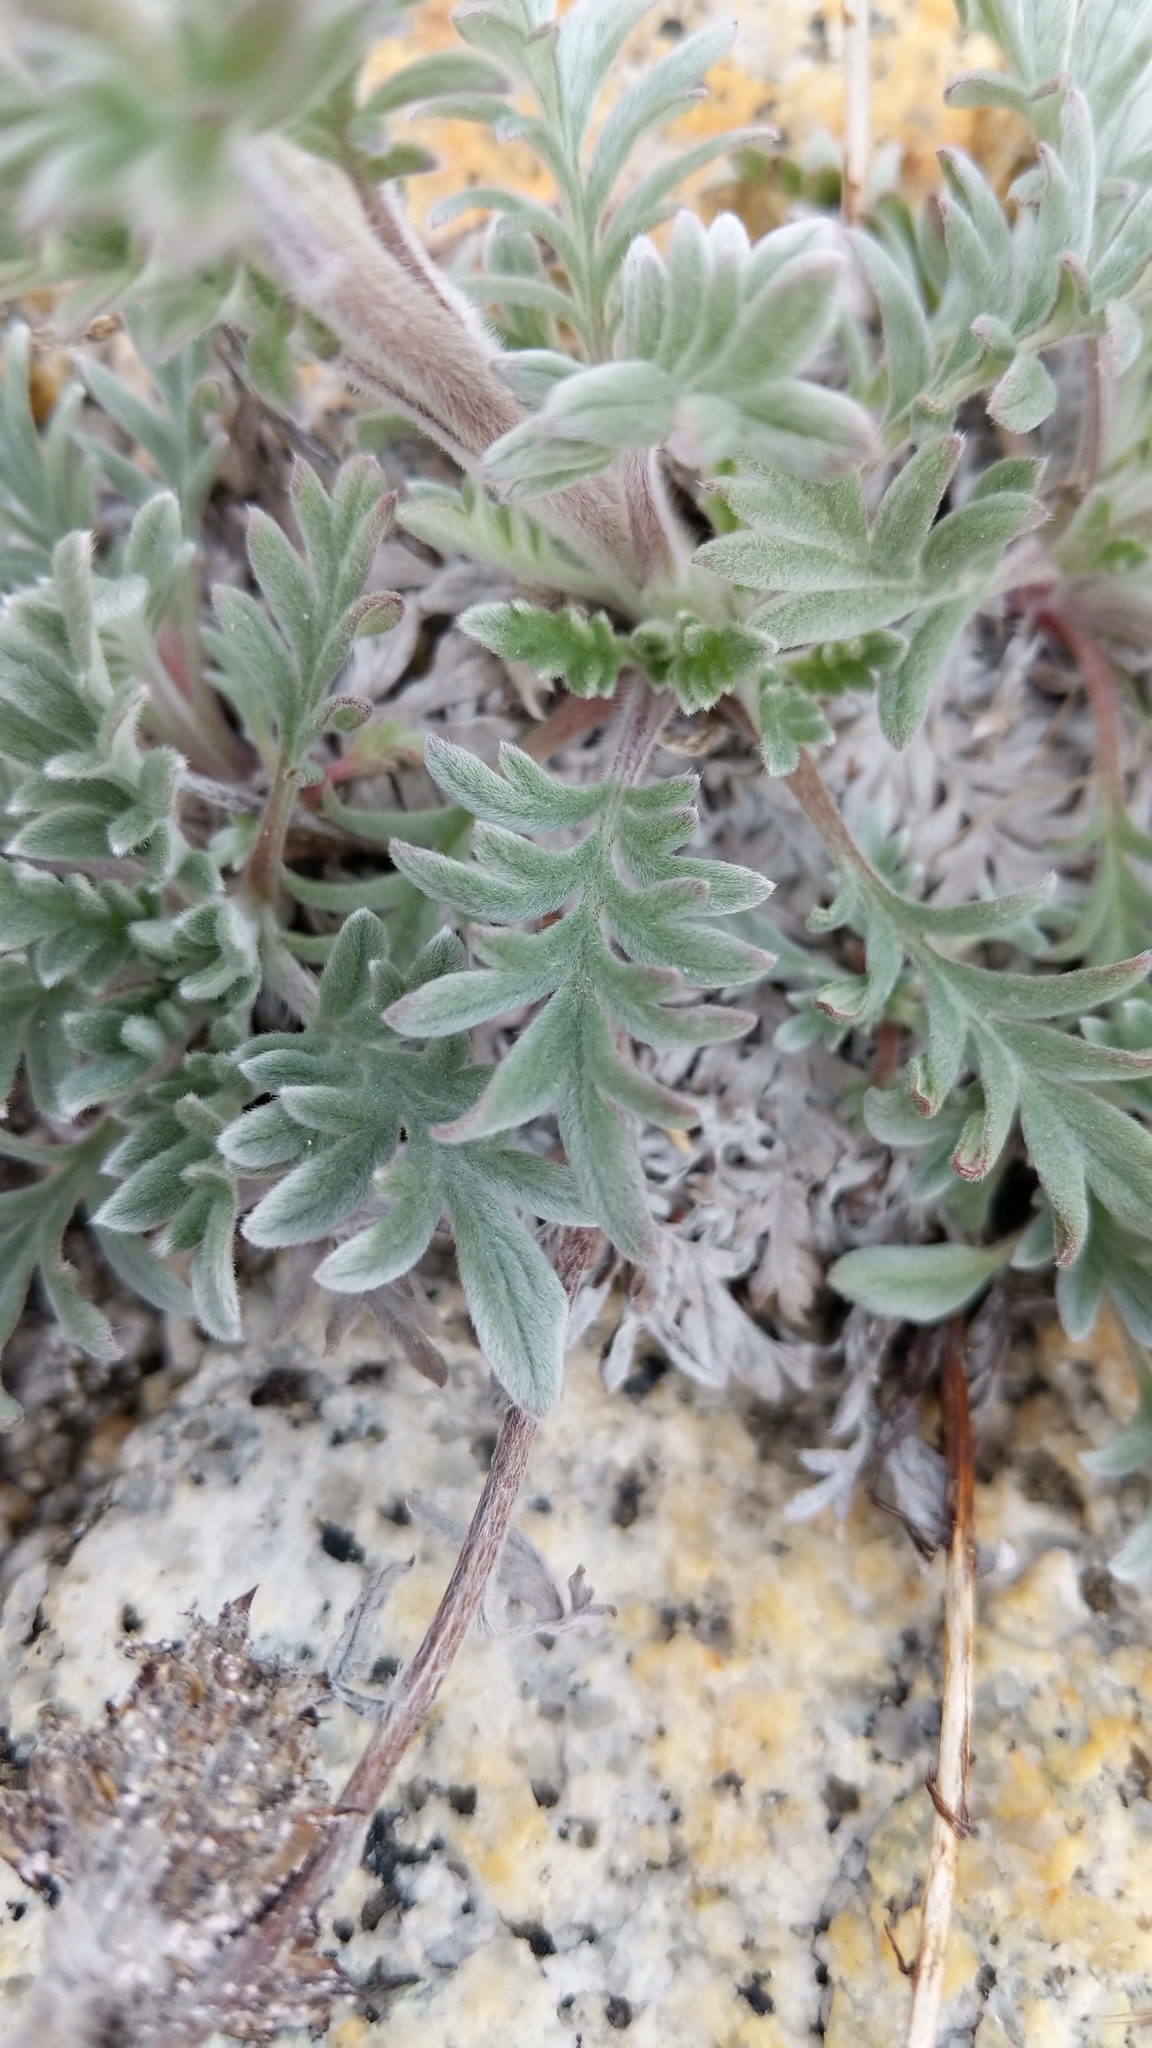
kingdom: Plantae
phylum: Tracheophyta
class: Magnoliopsida
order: Boraginales
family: Hydrophyllaceae
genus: Phacelia
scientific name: Phacelia sericea
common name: Silky phacelia
